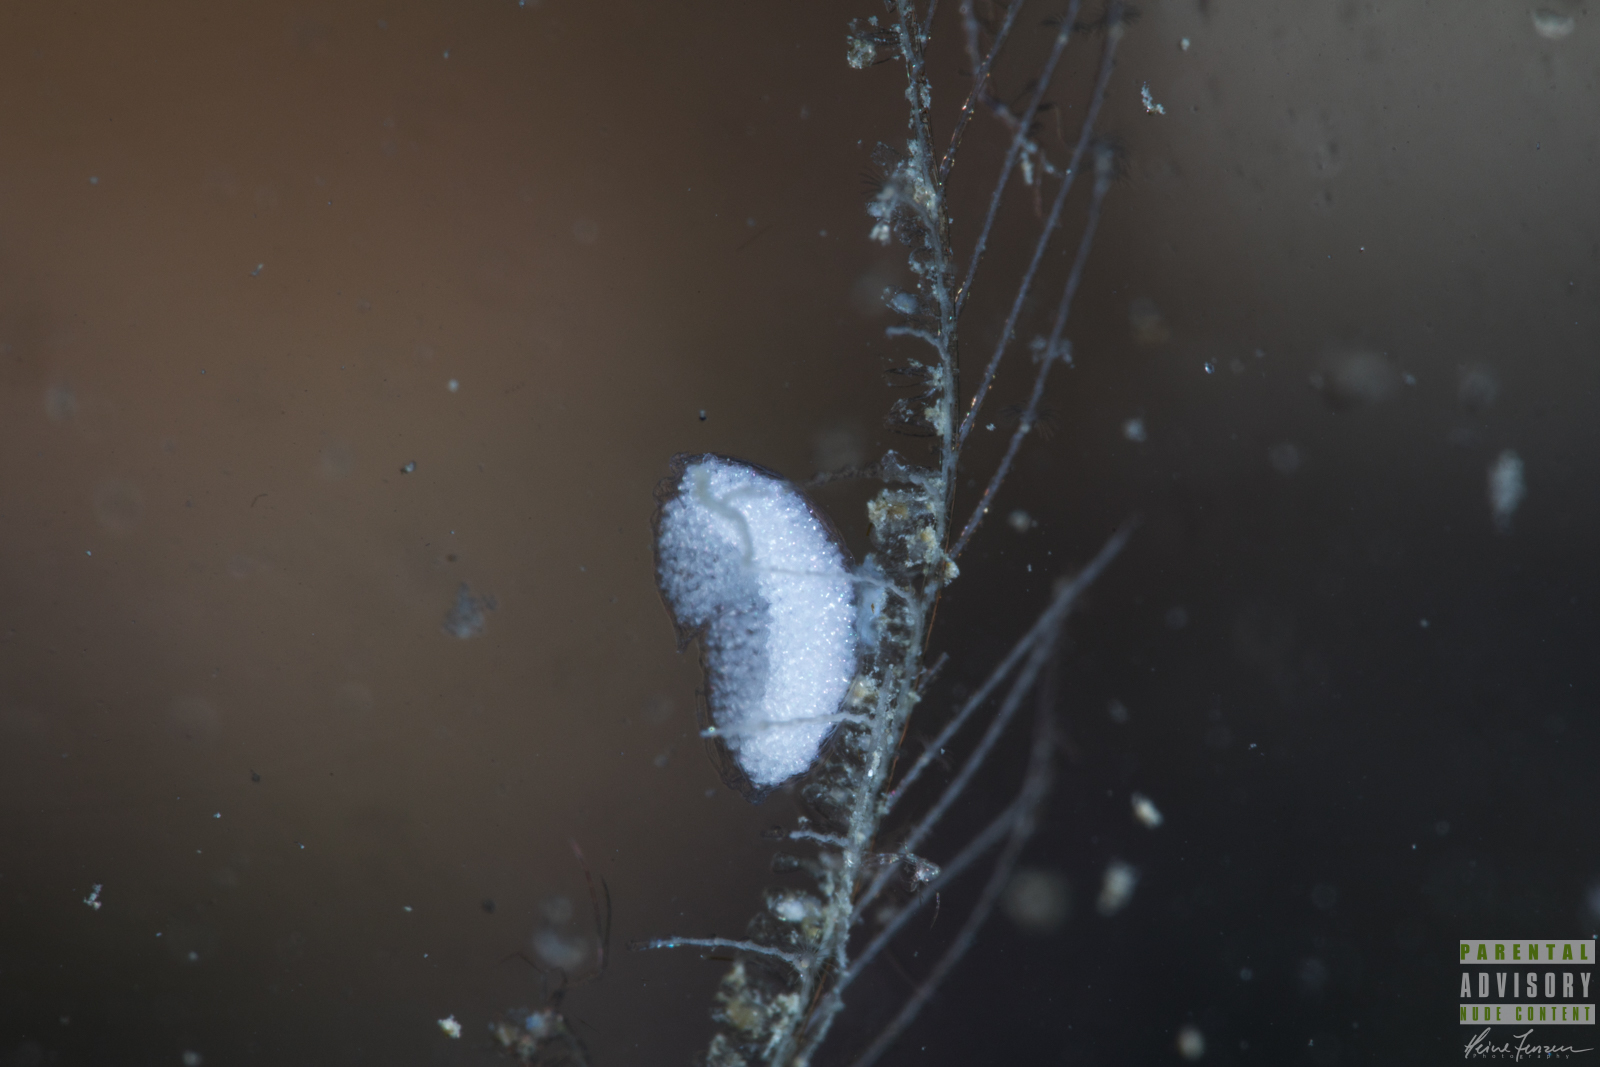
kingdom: Animalia
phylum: Mollusca
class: Gastropoda
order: Nudibranchia
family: Eubranchidae
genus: Eubranchus
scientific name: Eubranchus vittatus
